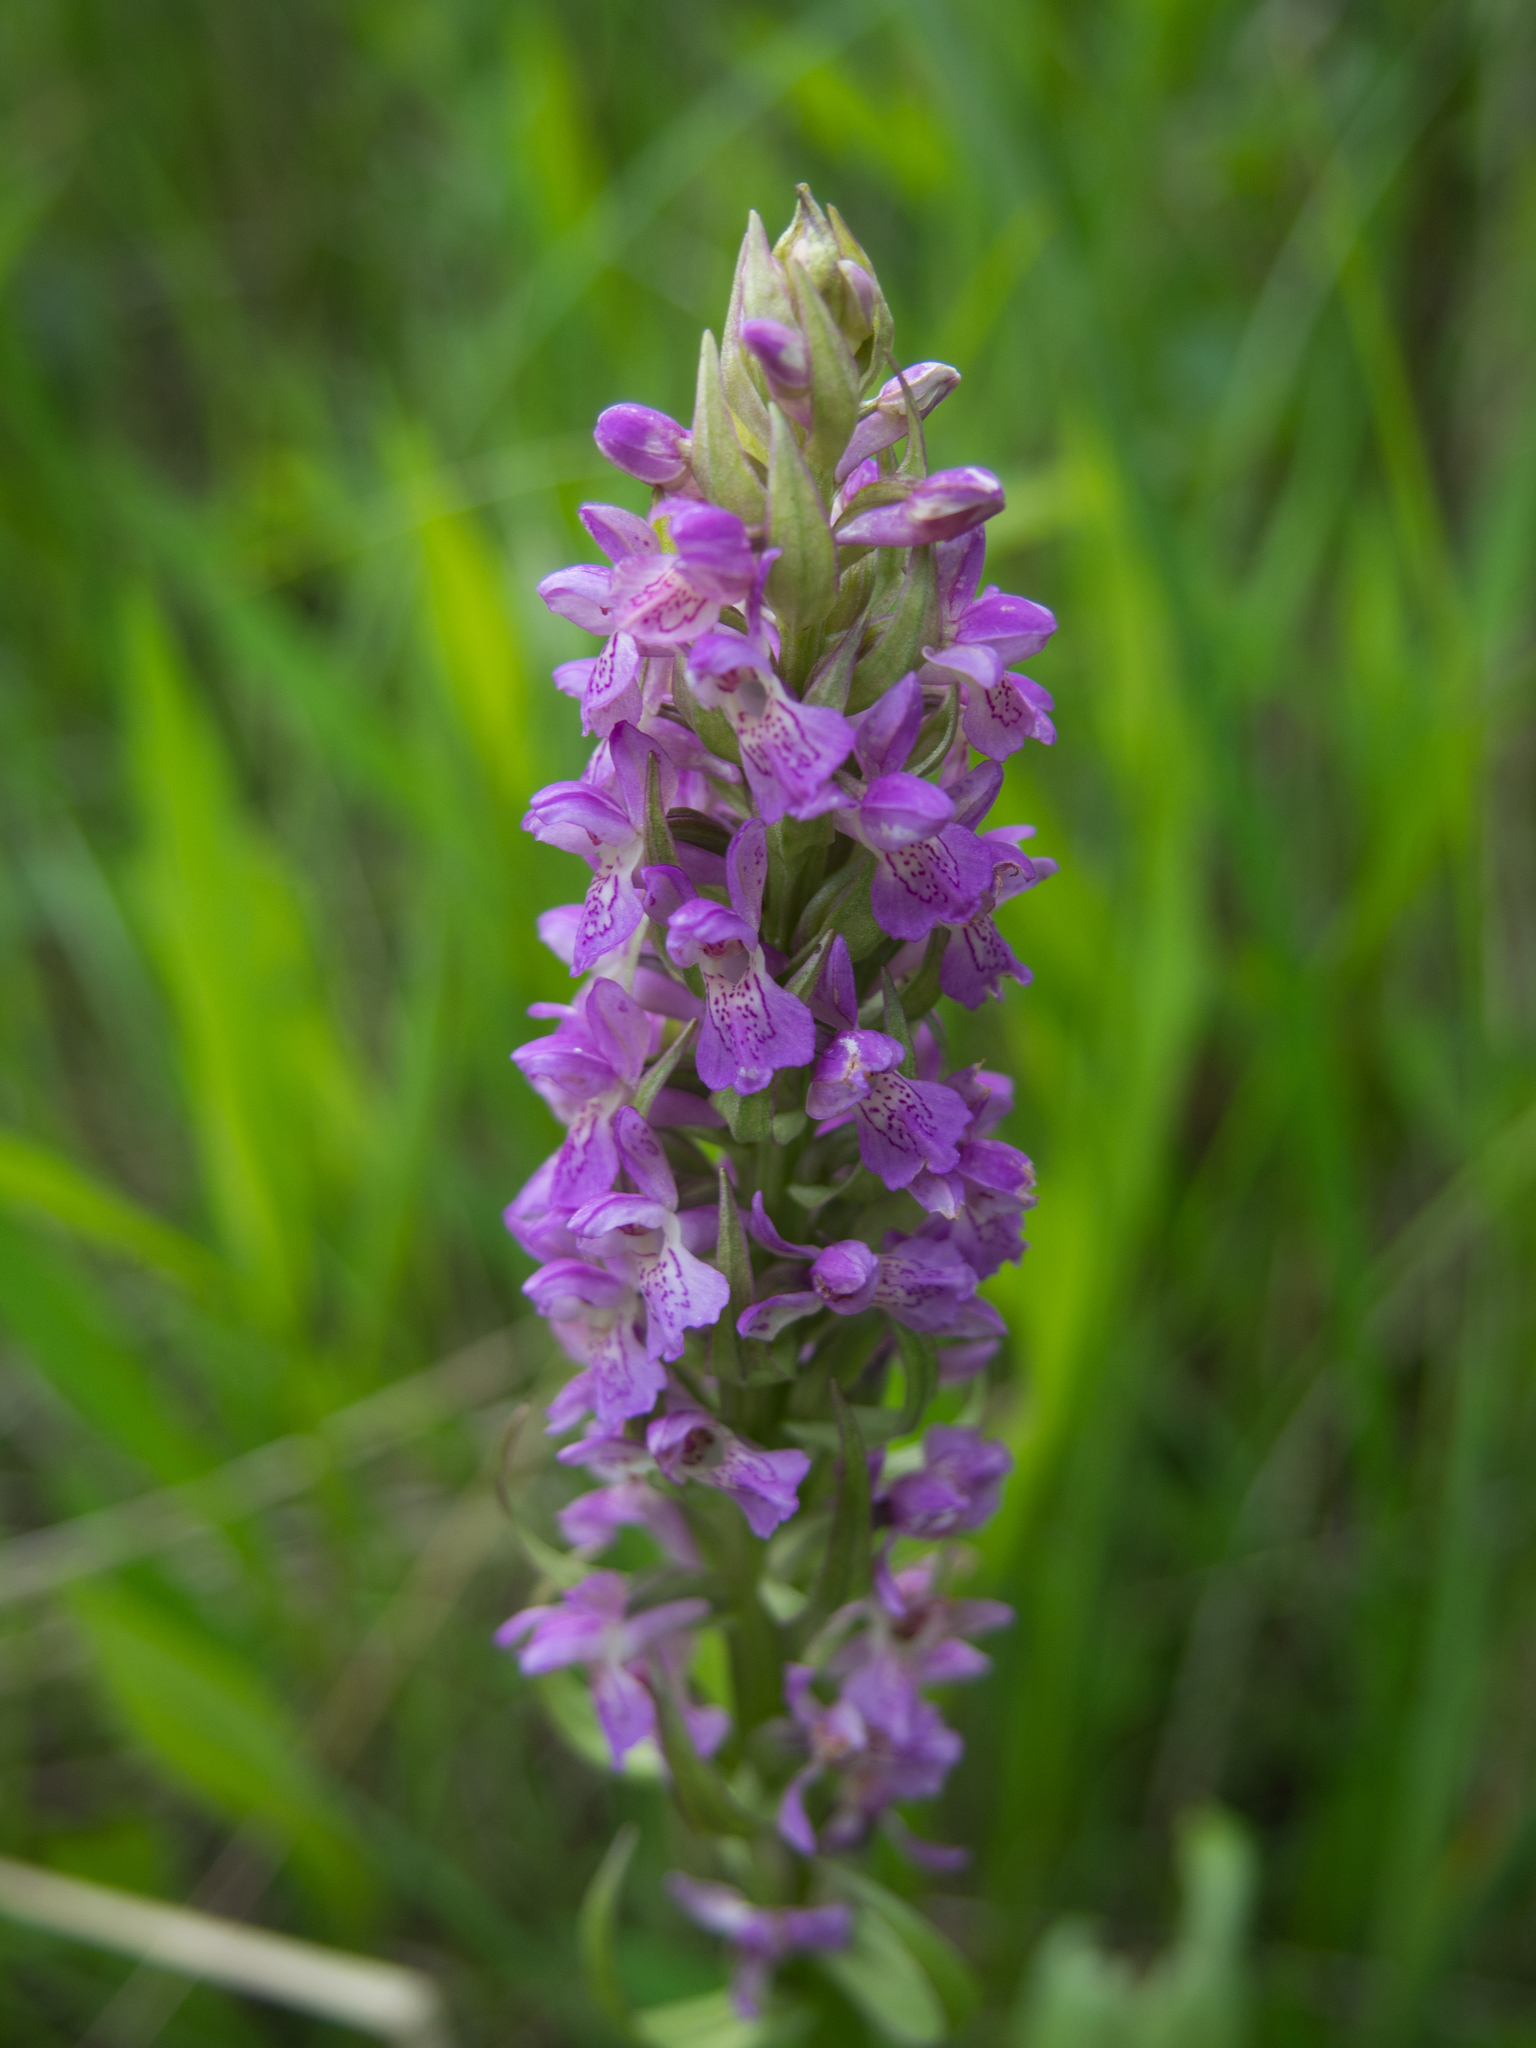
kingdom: Plantae
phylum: Tracheophyta
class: Liliopsida
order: Asparagales
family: Orchidaceae
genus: Dactylorhiza
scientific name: Dactylorhiza incarnata
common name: Early marsh-orchid
